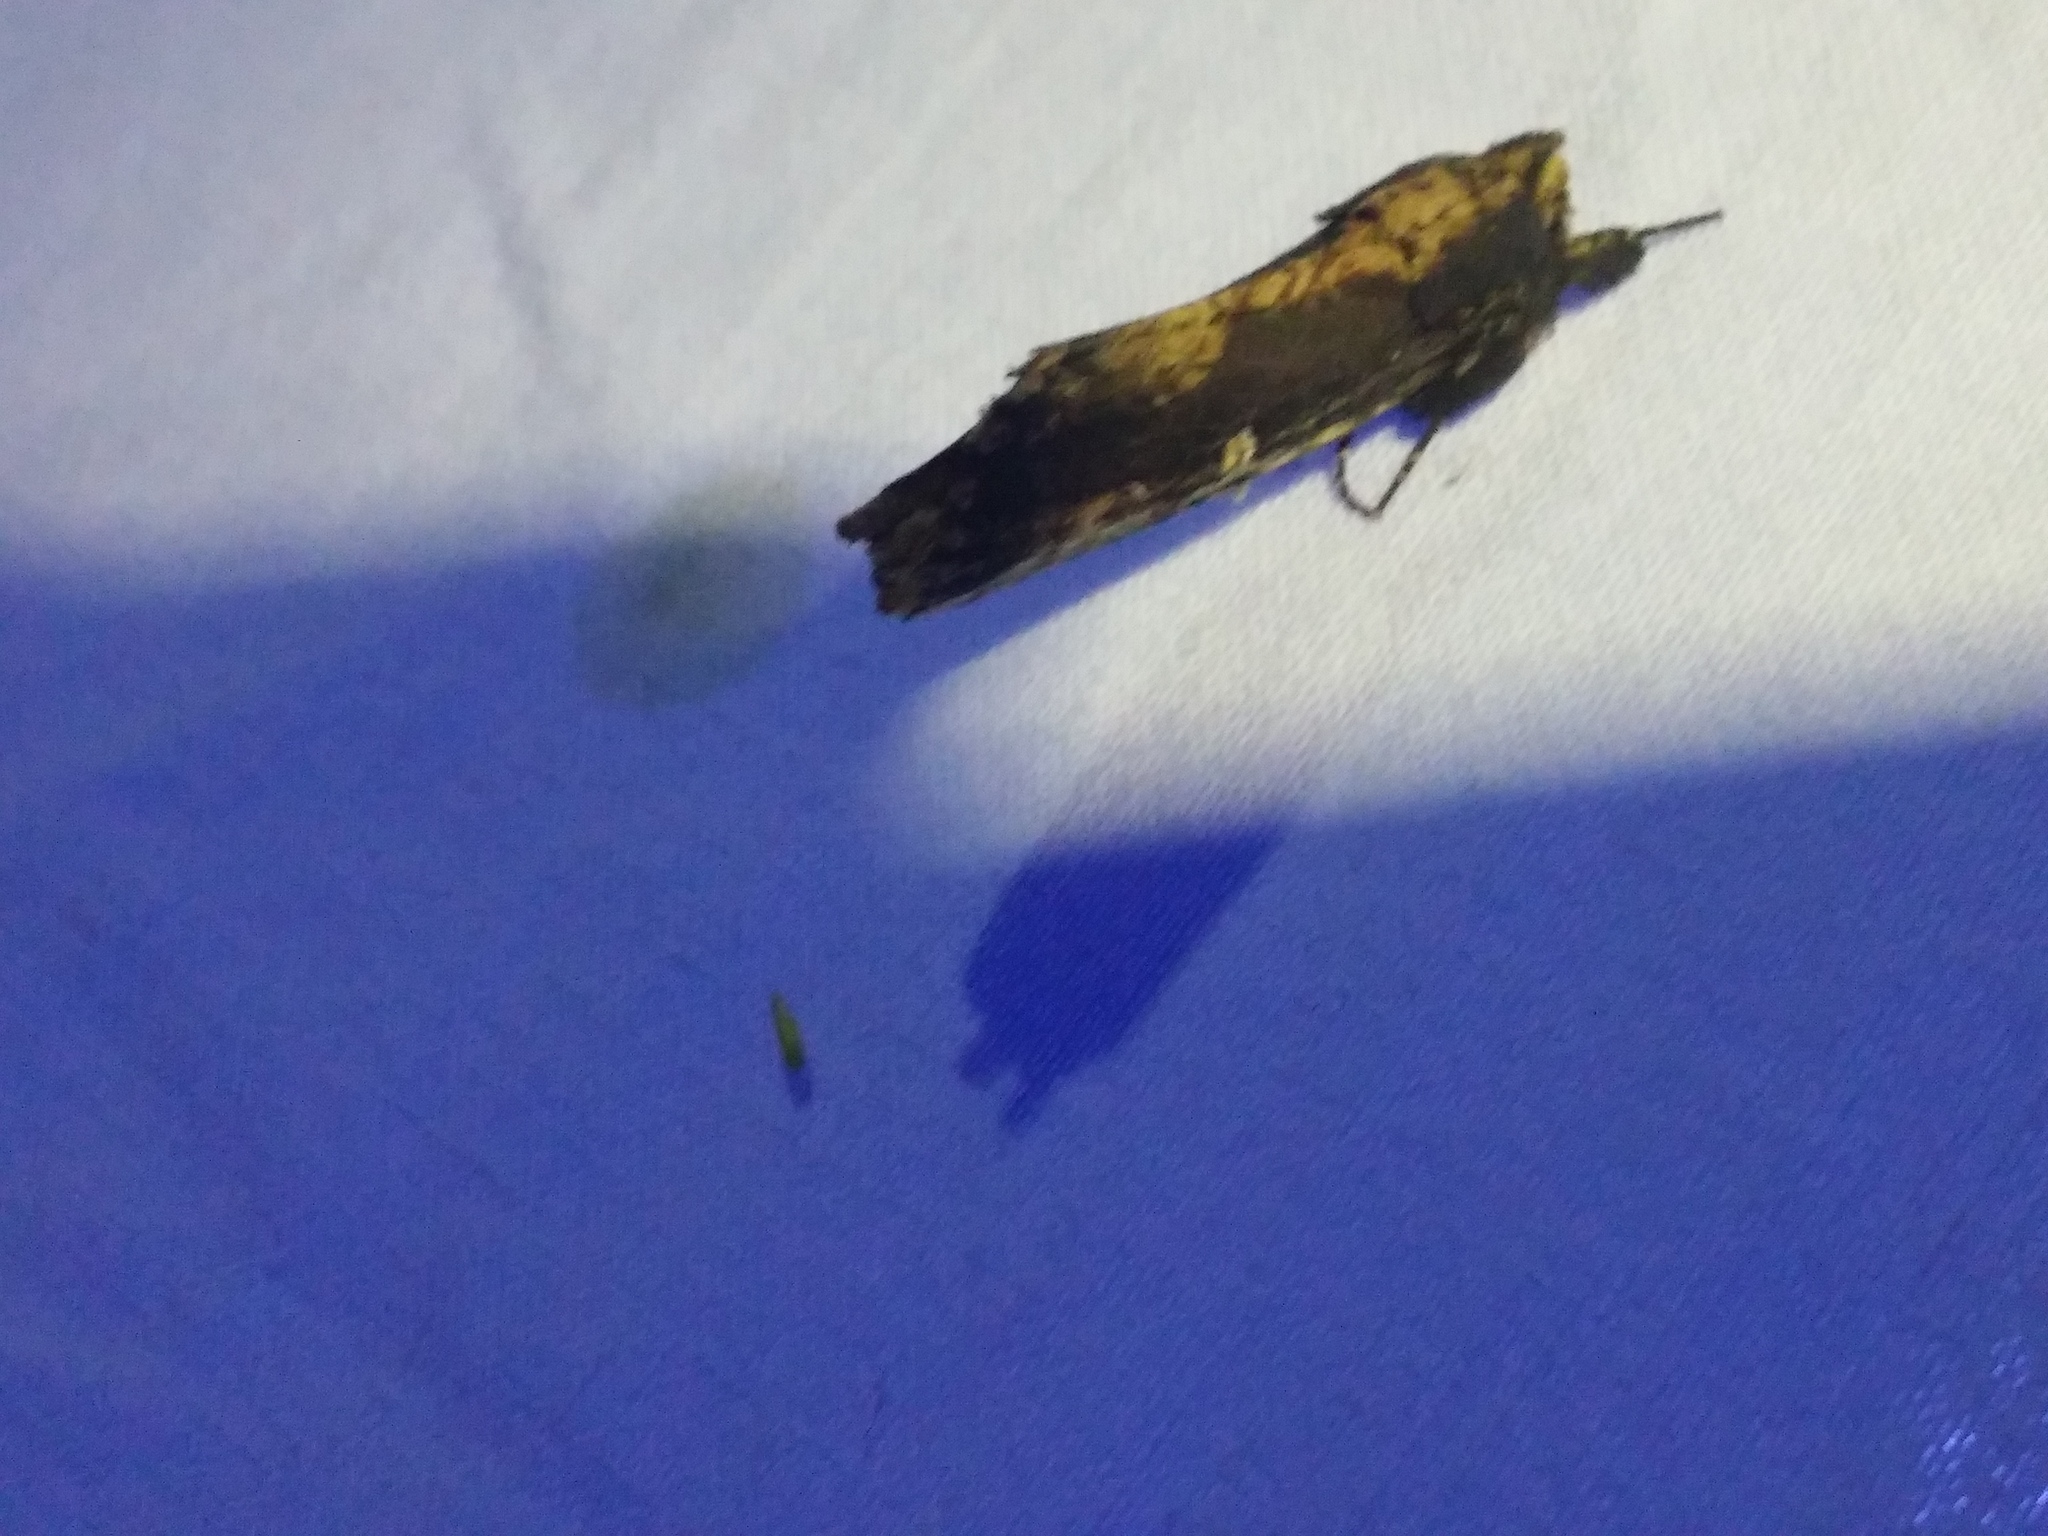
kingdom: Animalia
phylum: Arthropoda
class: Insecta
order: Lepidoptera
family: Notodontidae
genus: Schizura
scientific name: Schizura ipomaeae
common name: Morning-glory prominent
